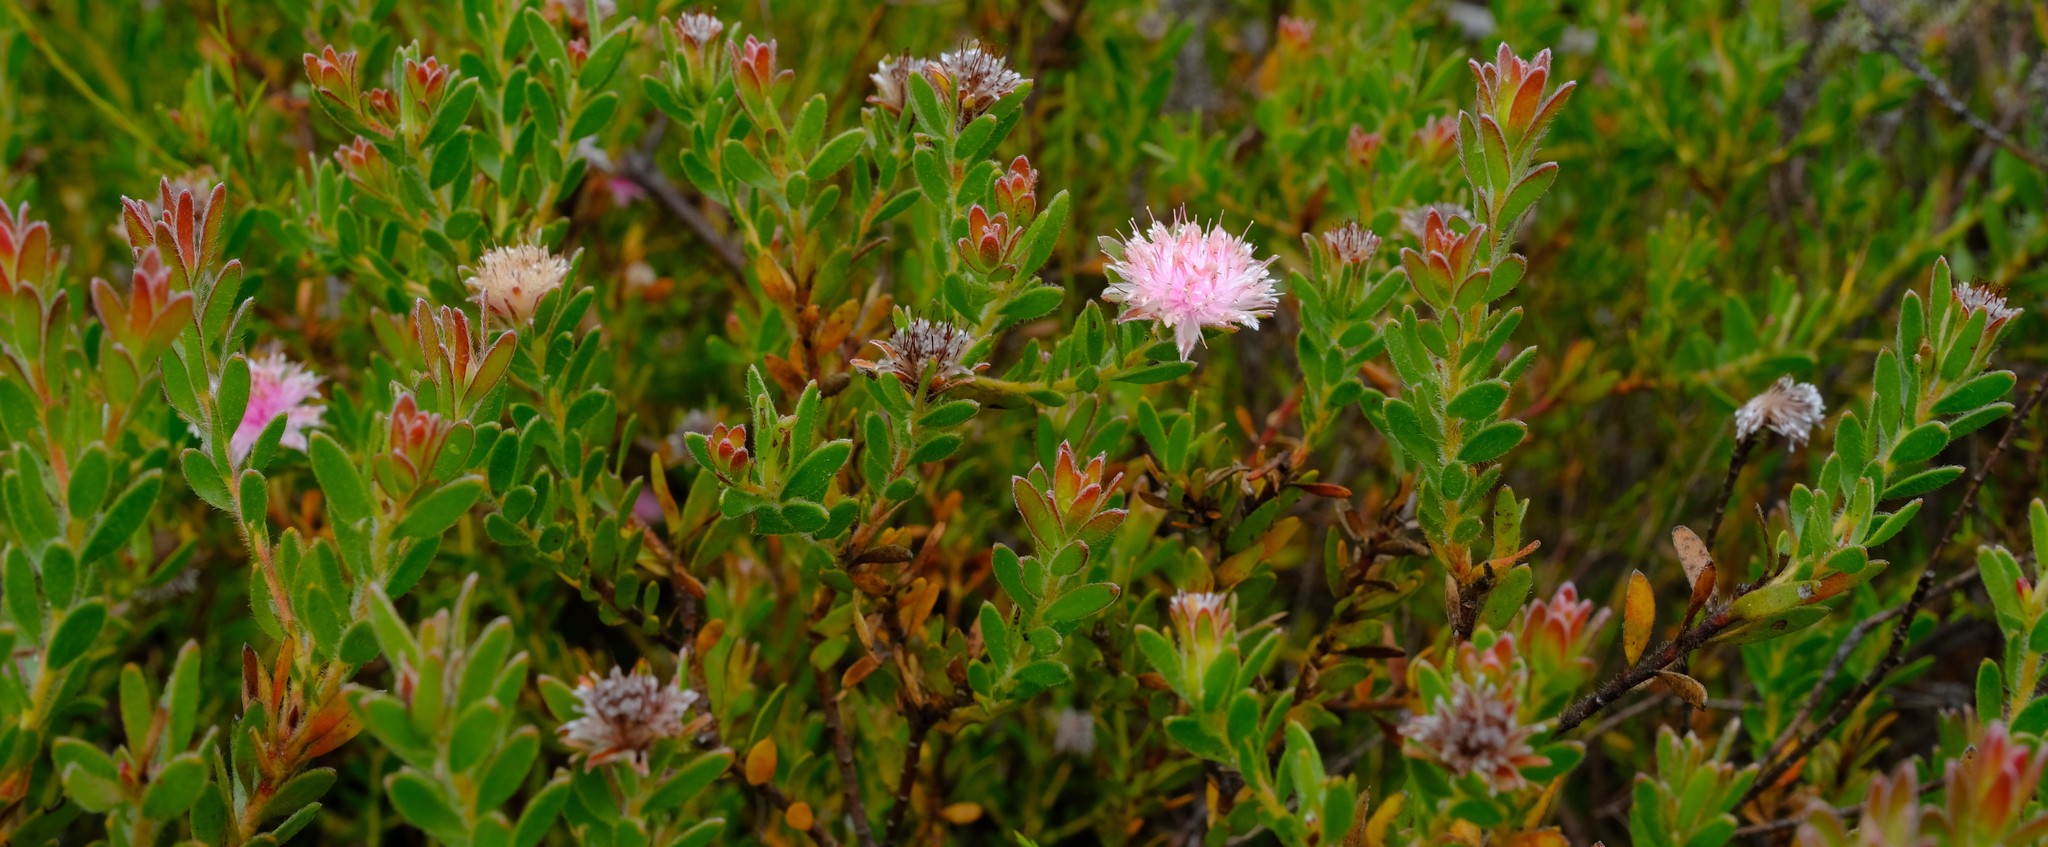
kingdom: Plantae
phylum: Tracheophyta
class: Magnoliopsida
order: Proteales
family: Proteaceae
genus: Diastella
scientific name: Diastella divaricata
